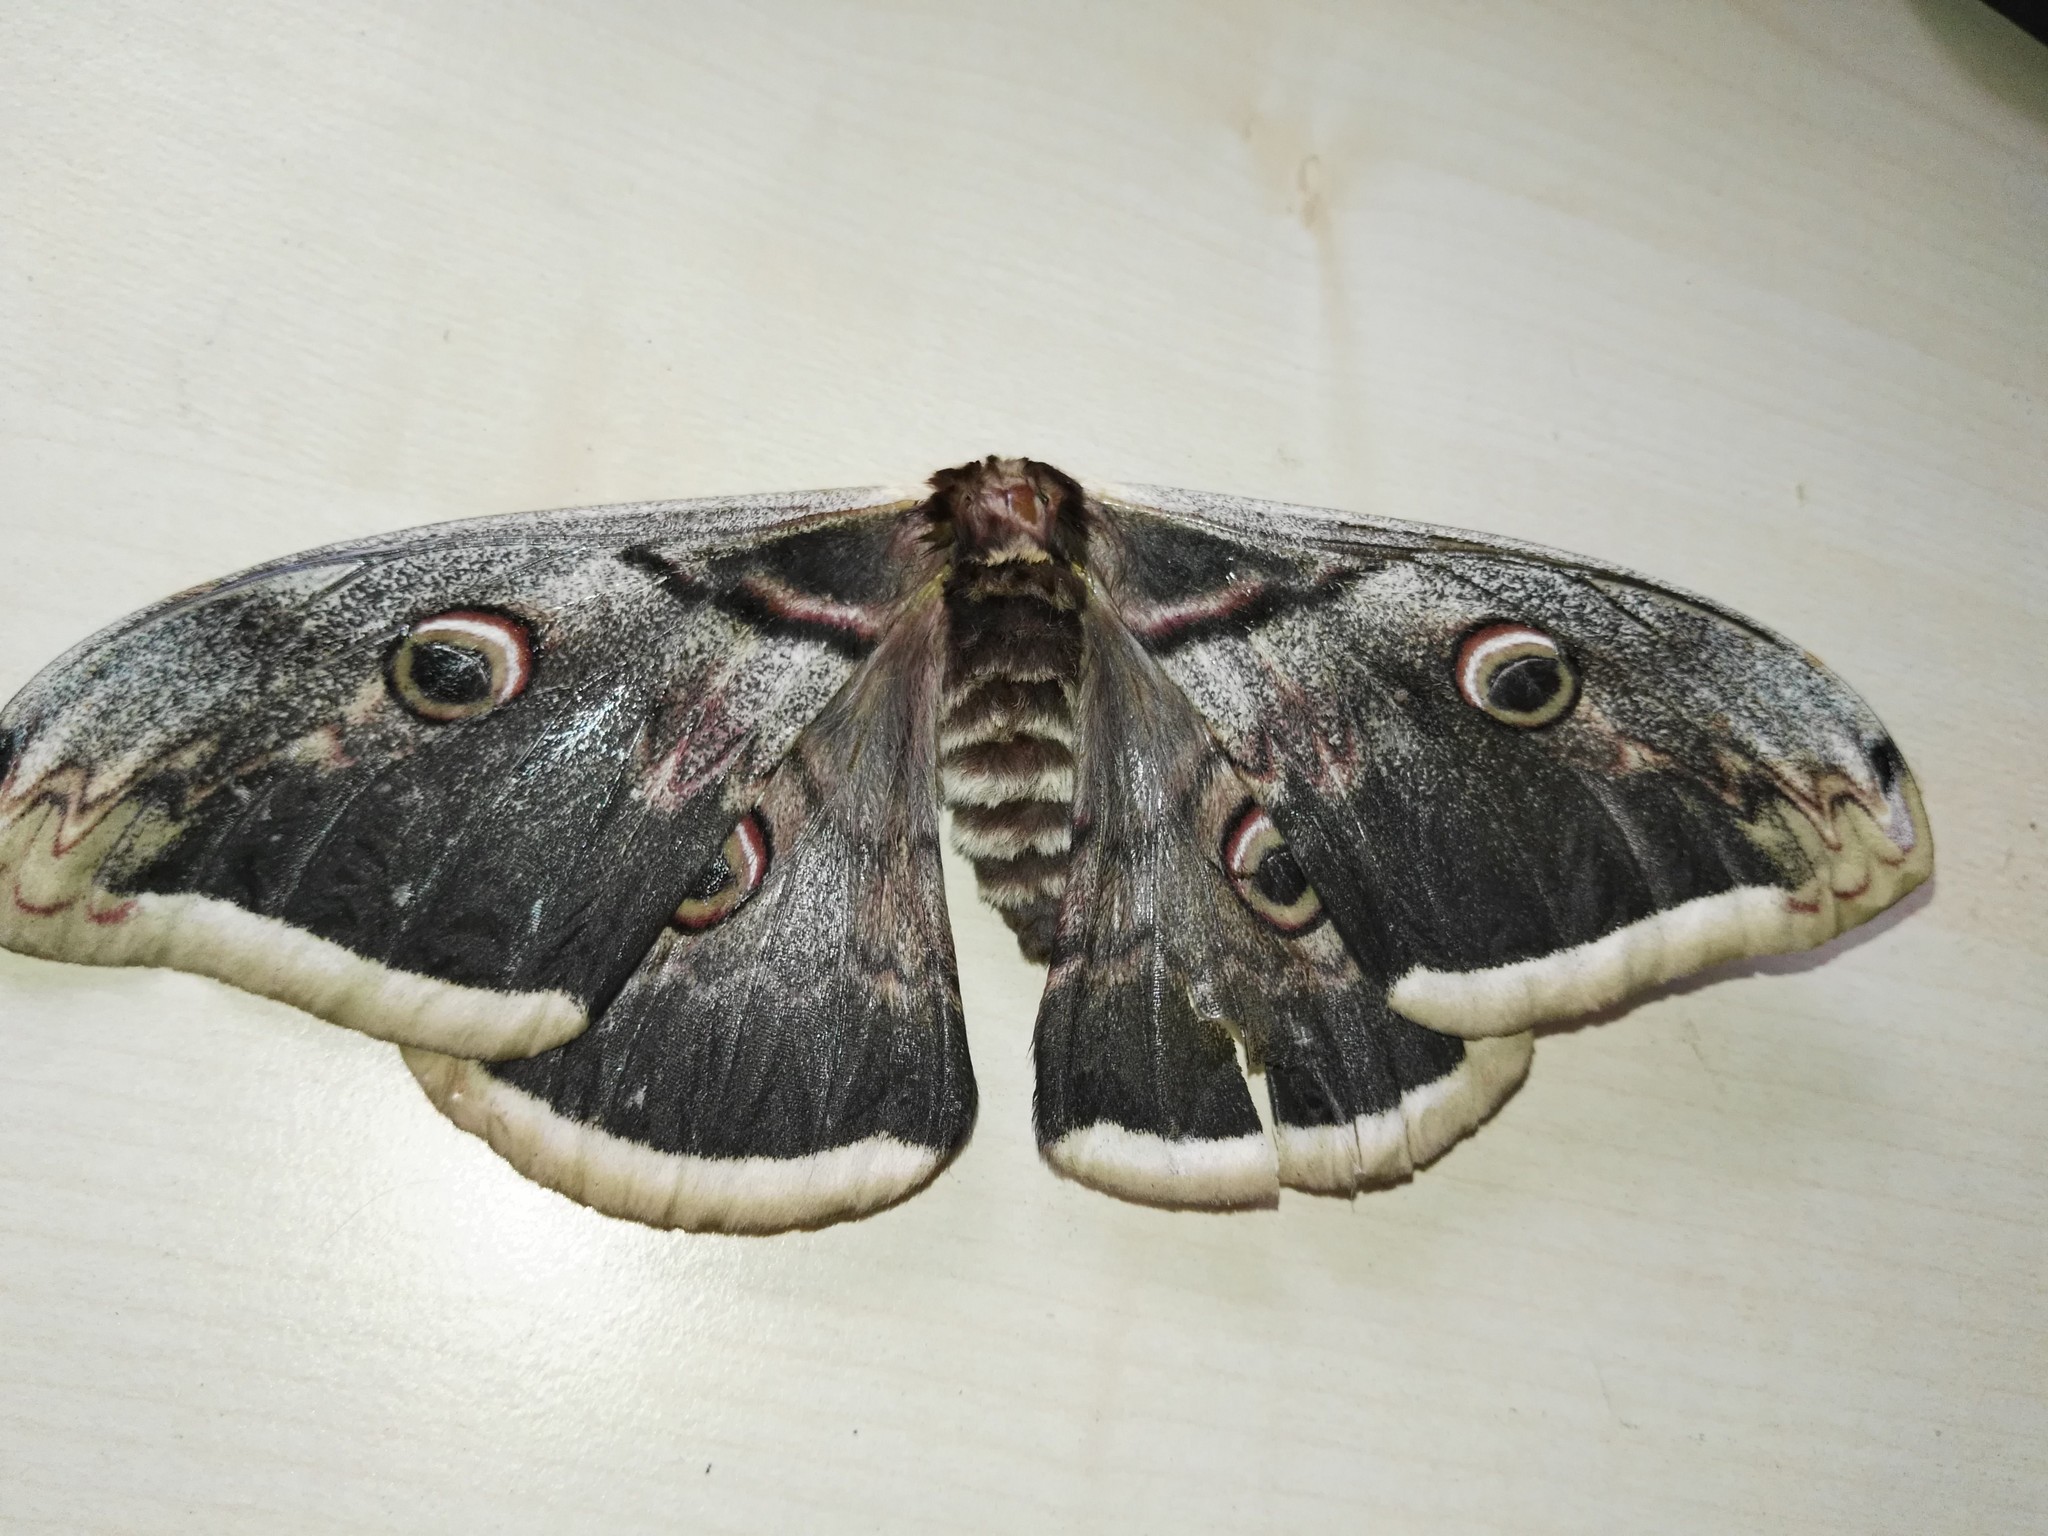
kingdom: Animalia
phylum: Arthropoda
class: Insecta
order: Lepidoptera
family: Saturniidae
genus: Saturnia
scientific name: Saturnia pyri
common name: Great peacock moth
